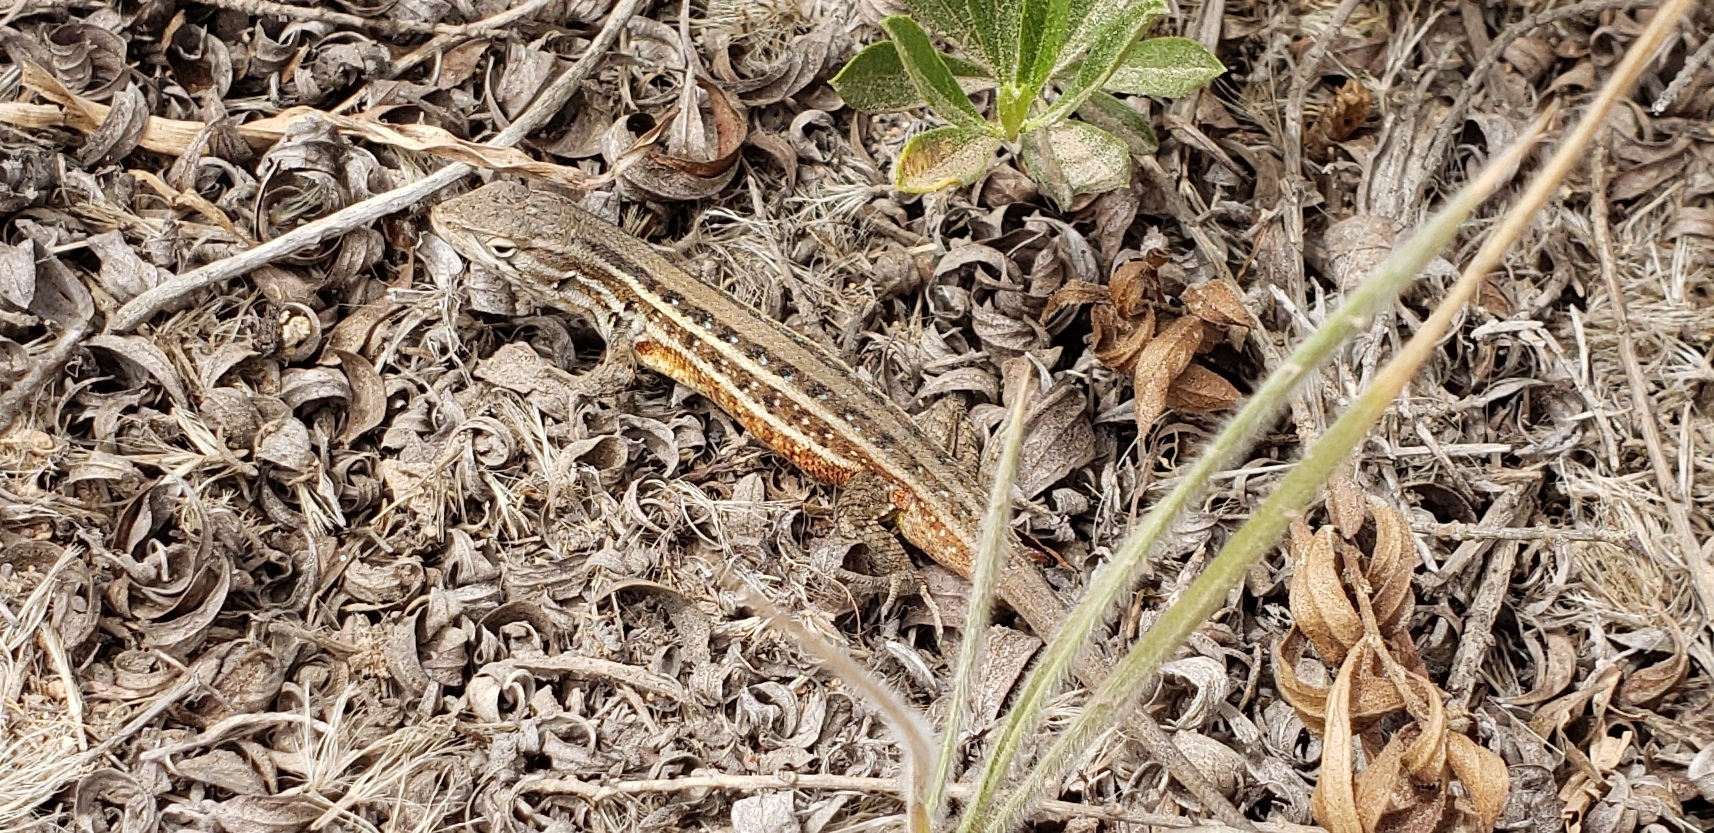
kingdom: Animalia
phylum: Chordata
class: Squamata
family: Liolaemidae
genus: Liolaemus
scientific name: Liolaemus lemniscatus
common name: Wreath tree iguana
